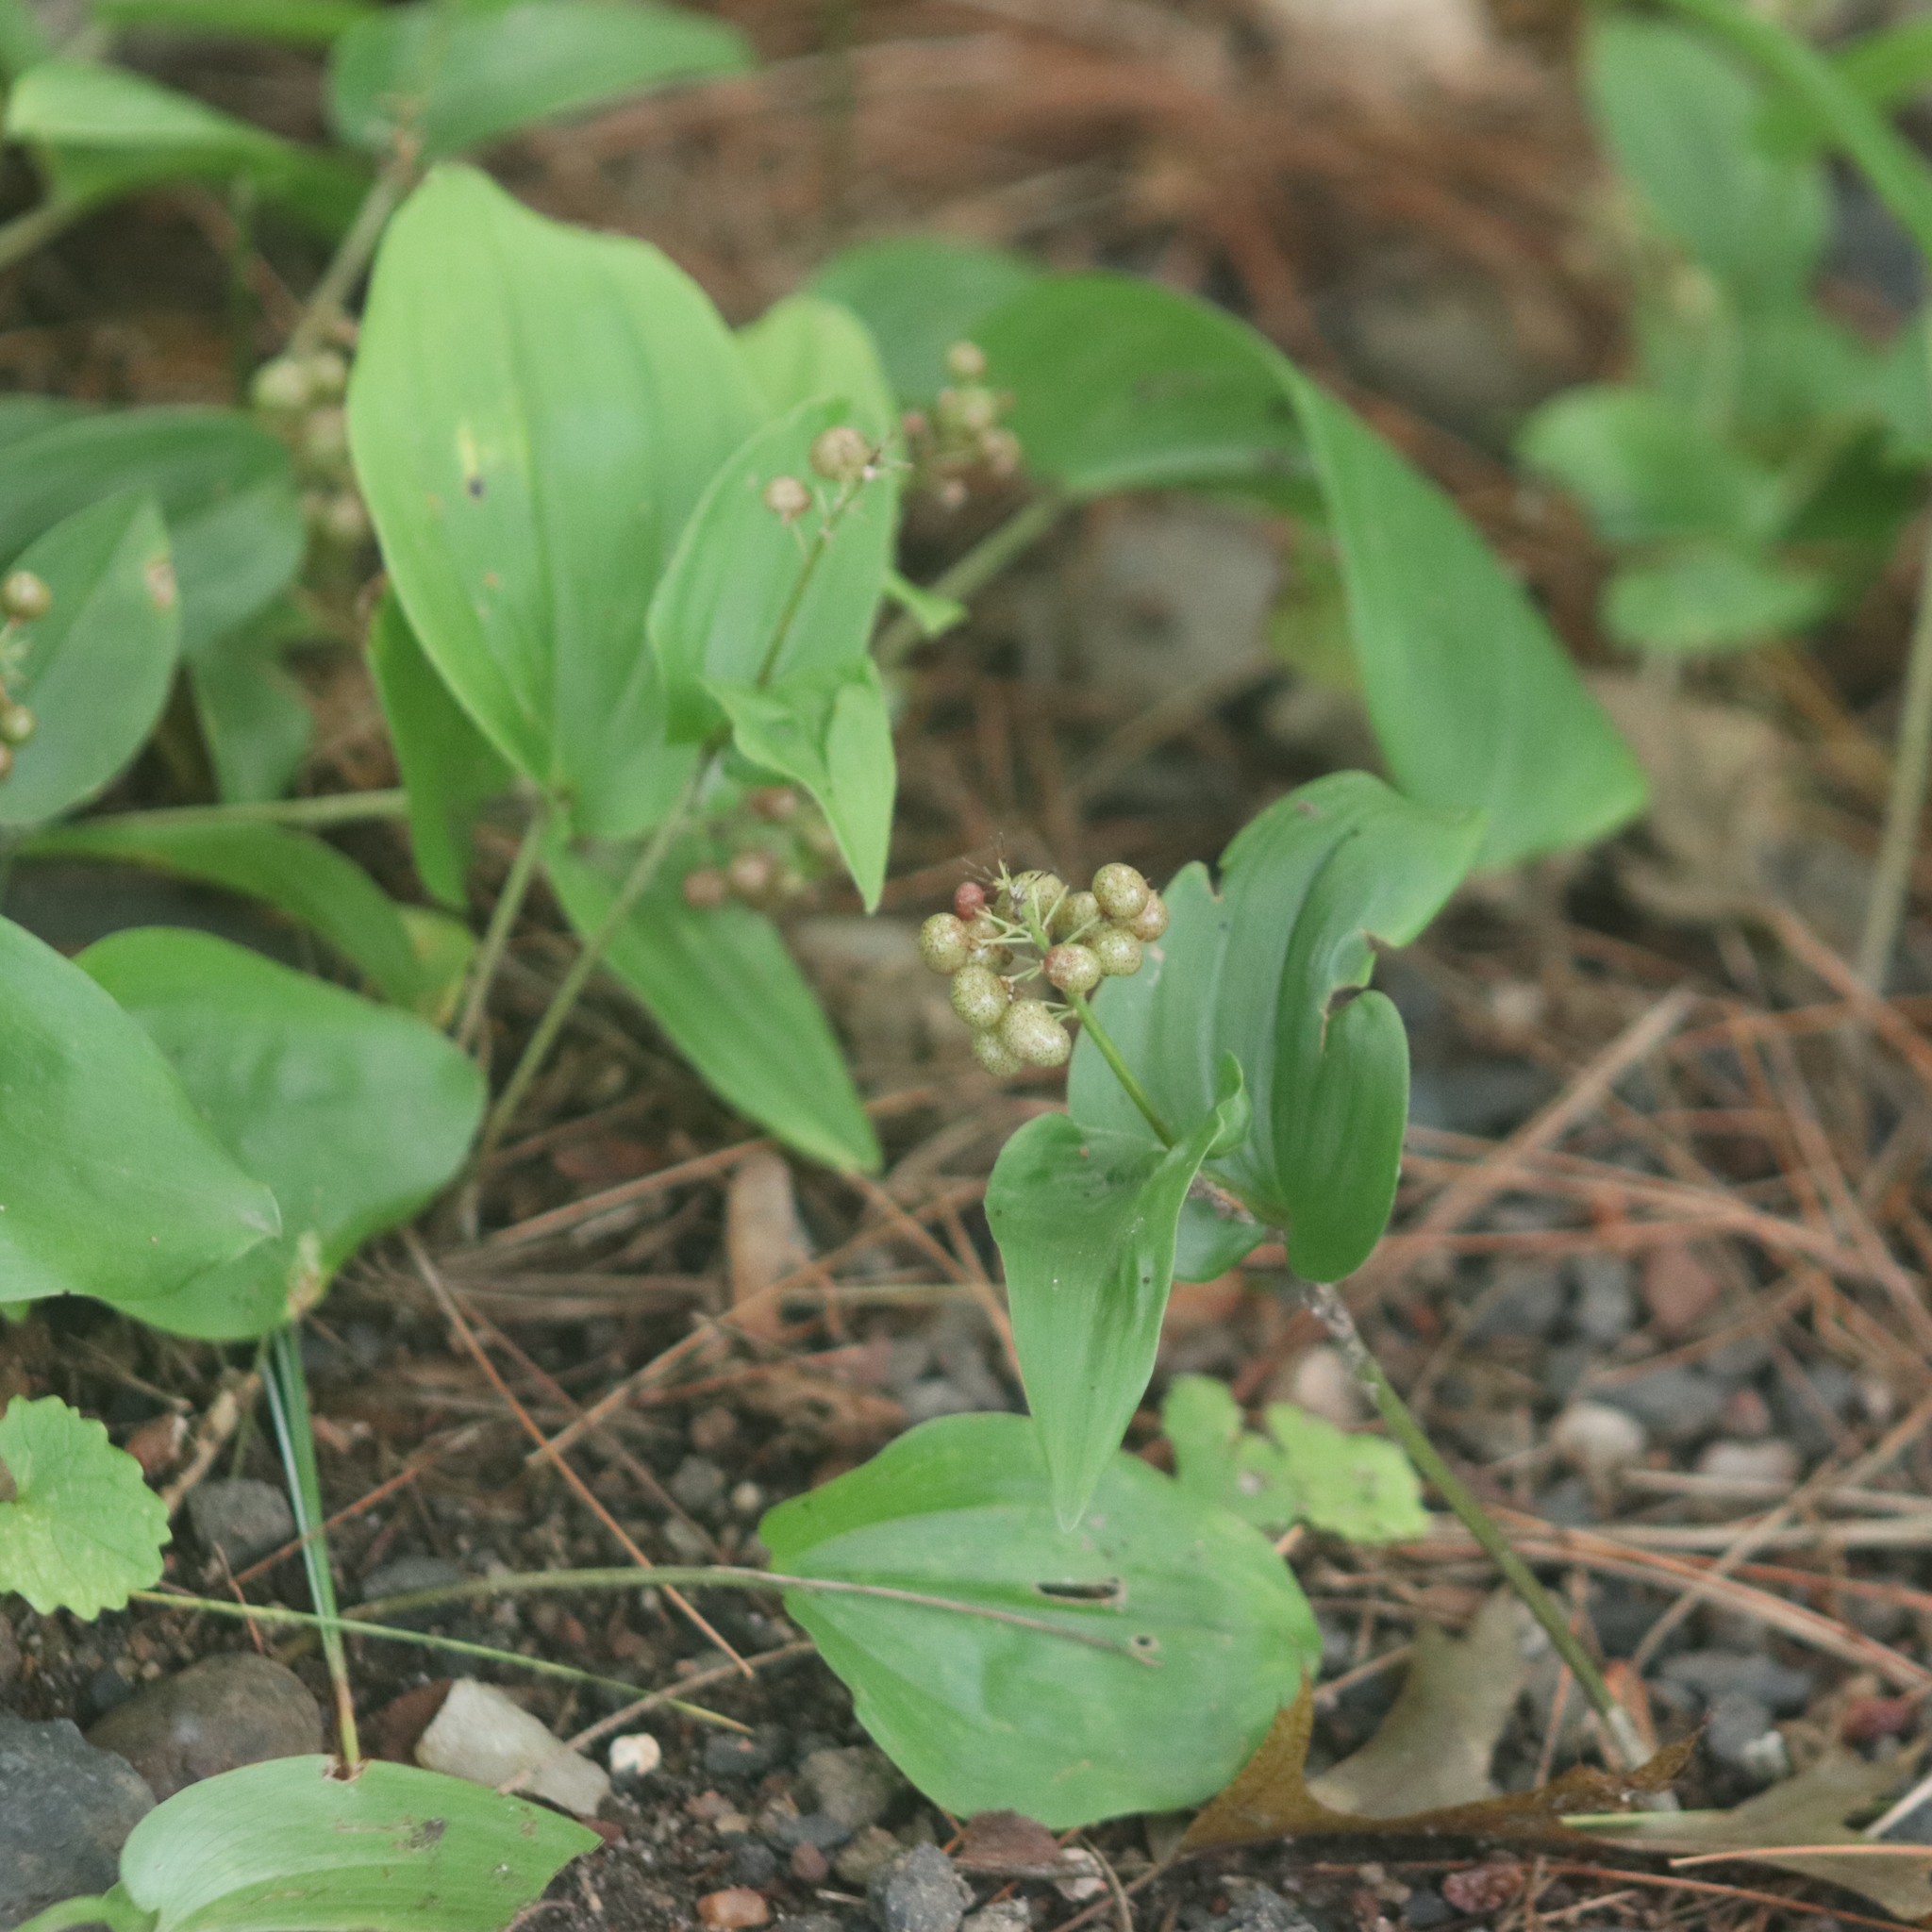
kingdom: Plantae
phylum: Tracheophyta
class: Liliopsida
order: Asparagales
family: Asparagaceae
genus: Maianthemum
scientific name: Maianthemum canadense
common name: False lily-of-the-valley
